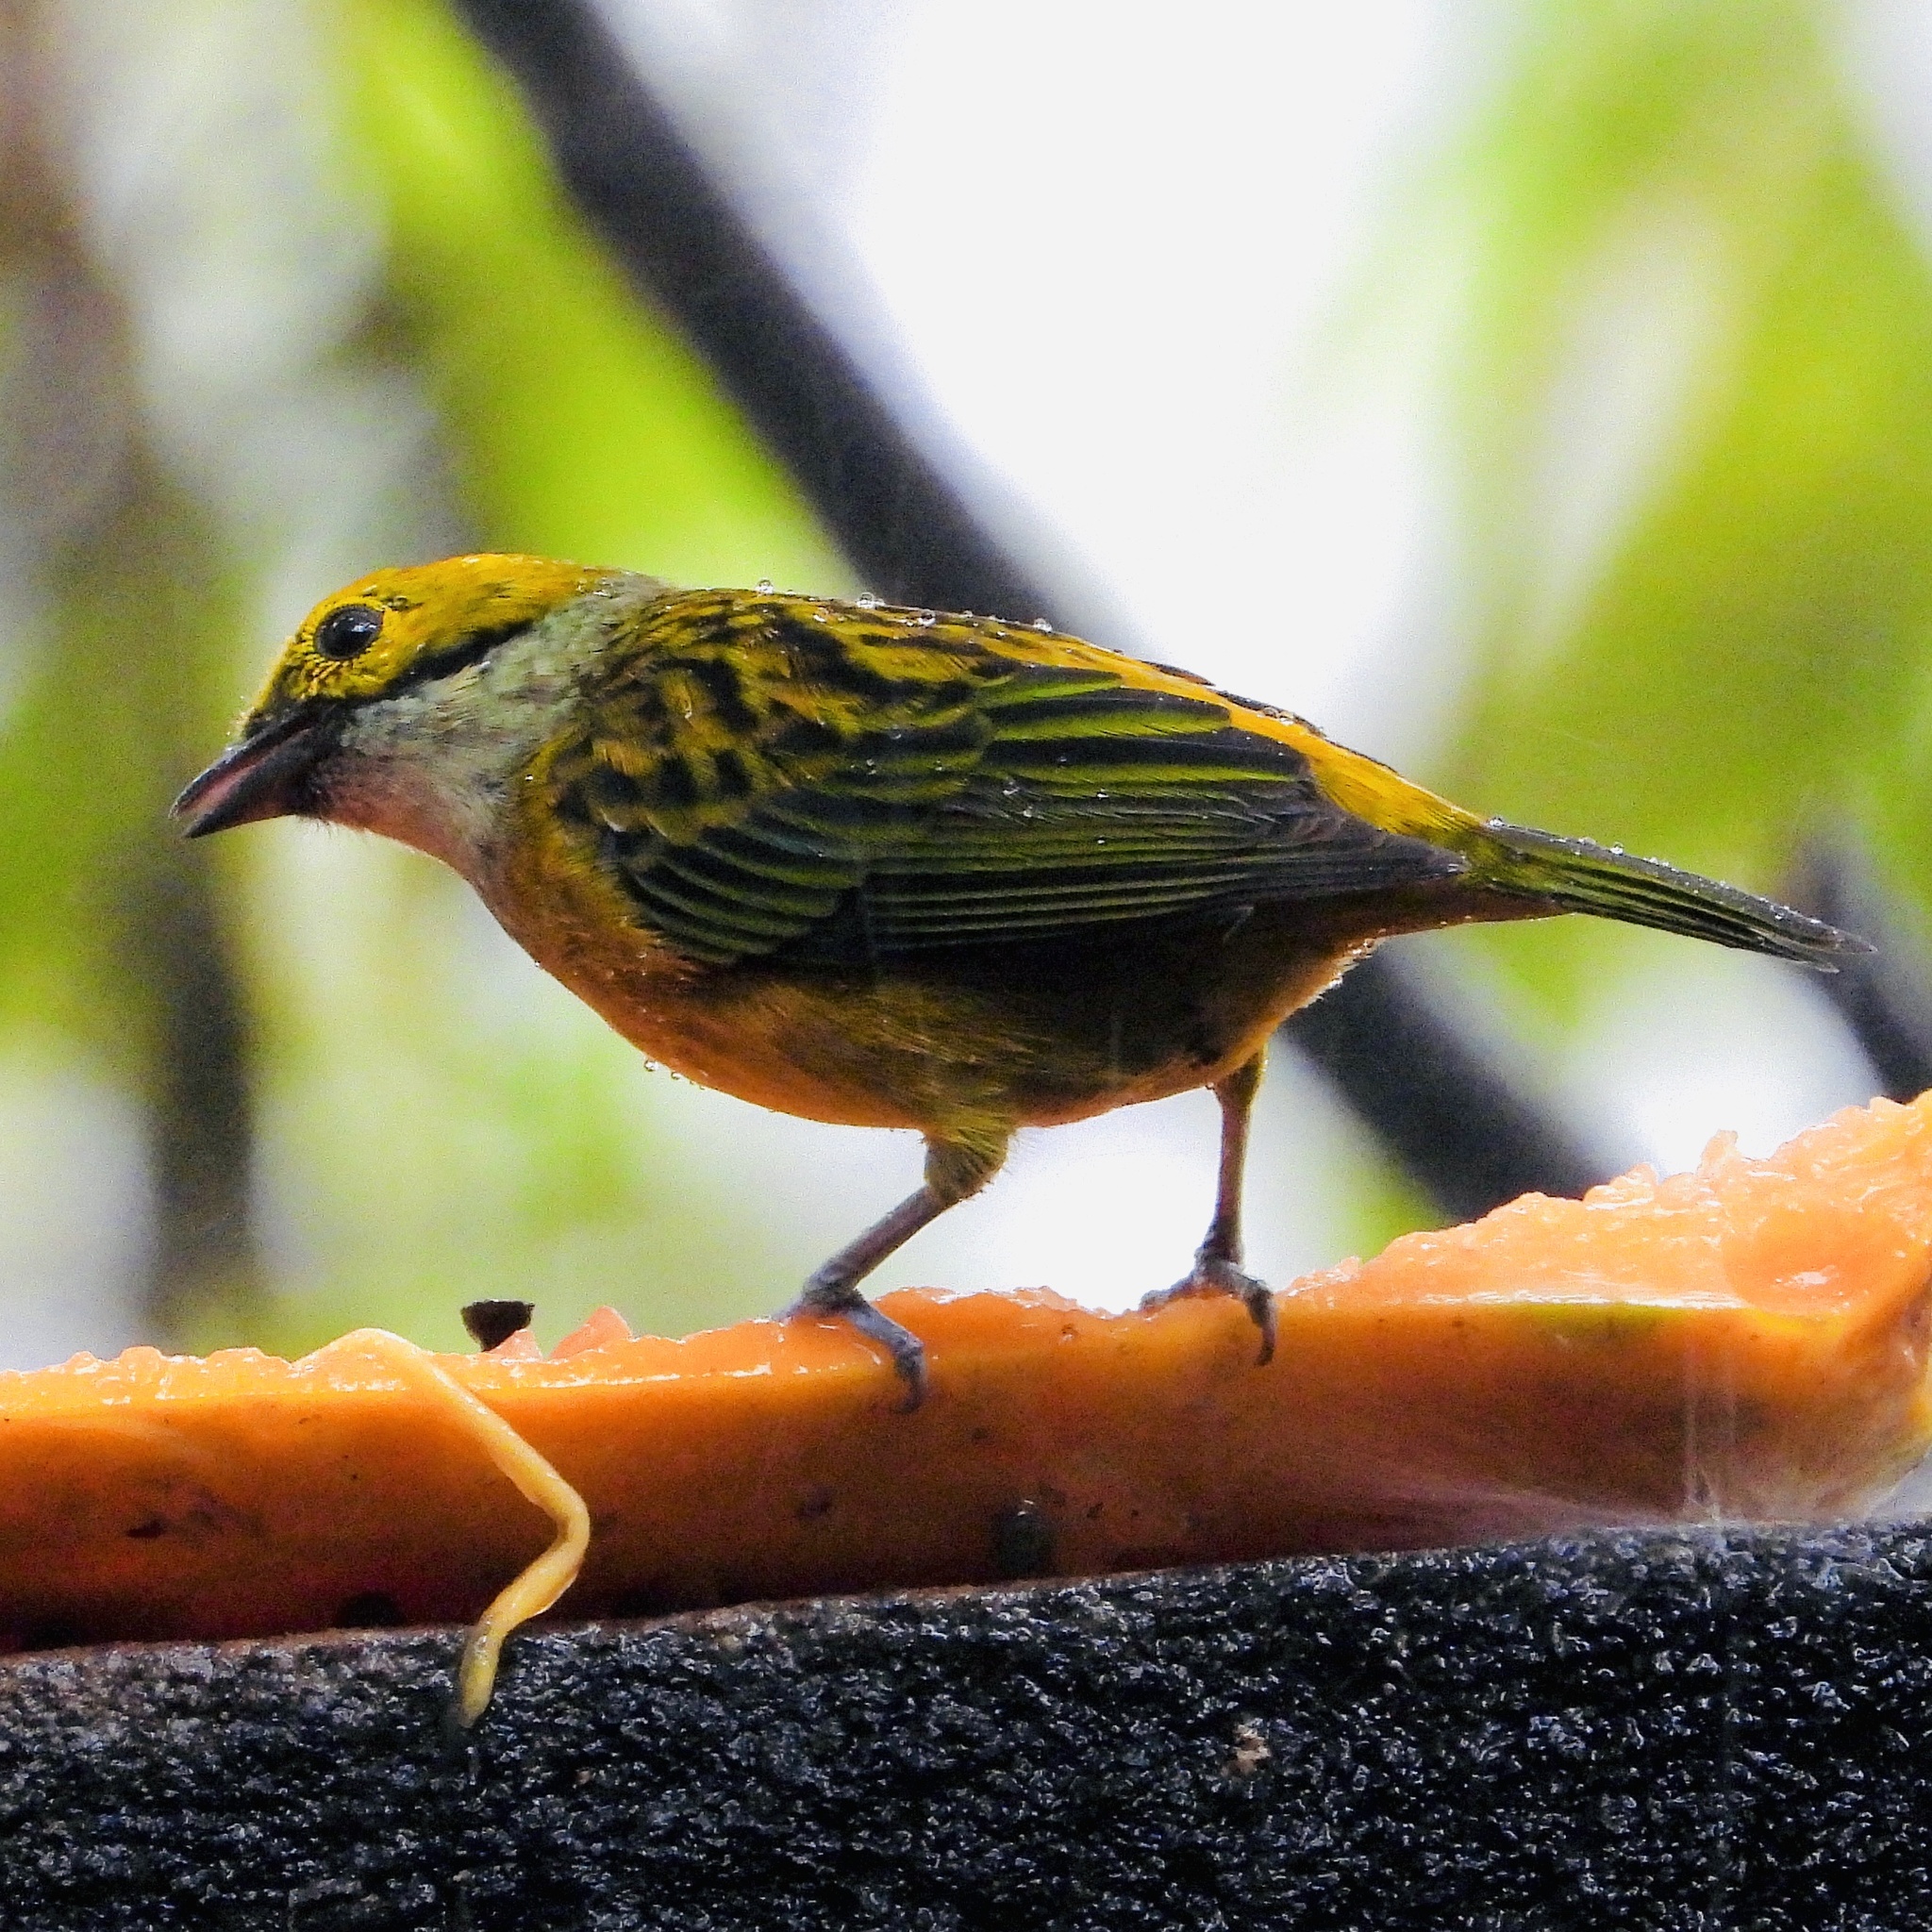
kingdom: Animalia
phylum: Chordata
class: Aves
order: Passeriformes
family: Thraupidae
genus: Tangara
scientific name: Tangara icterocephala
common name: Silver-throated tanager
